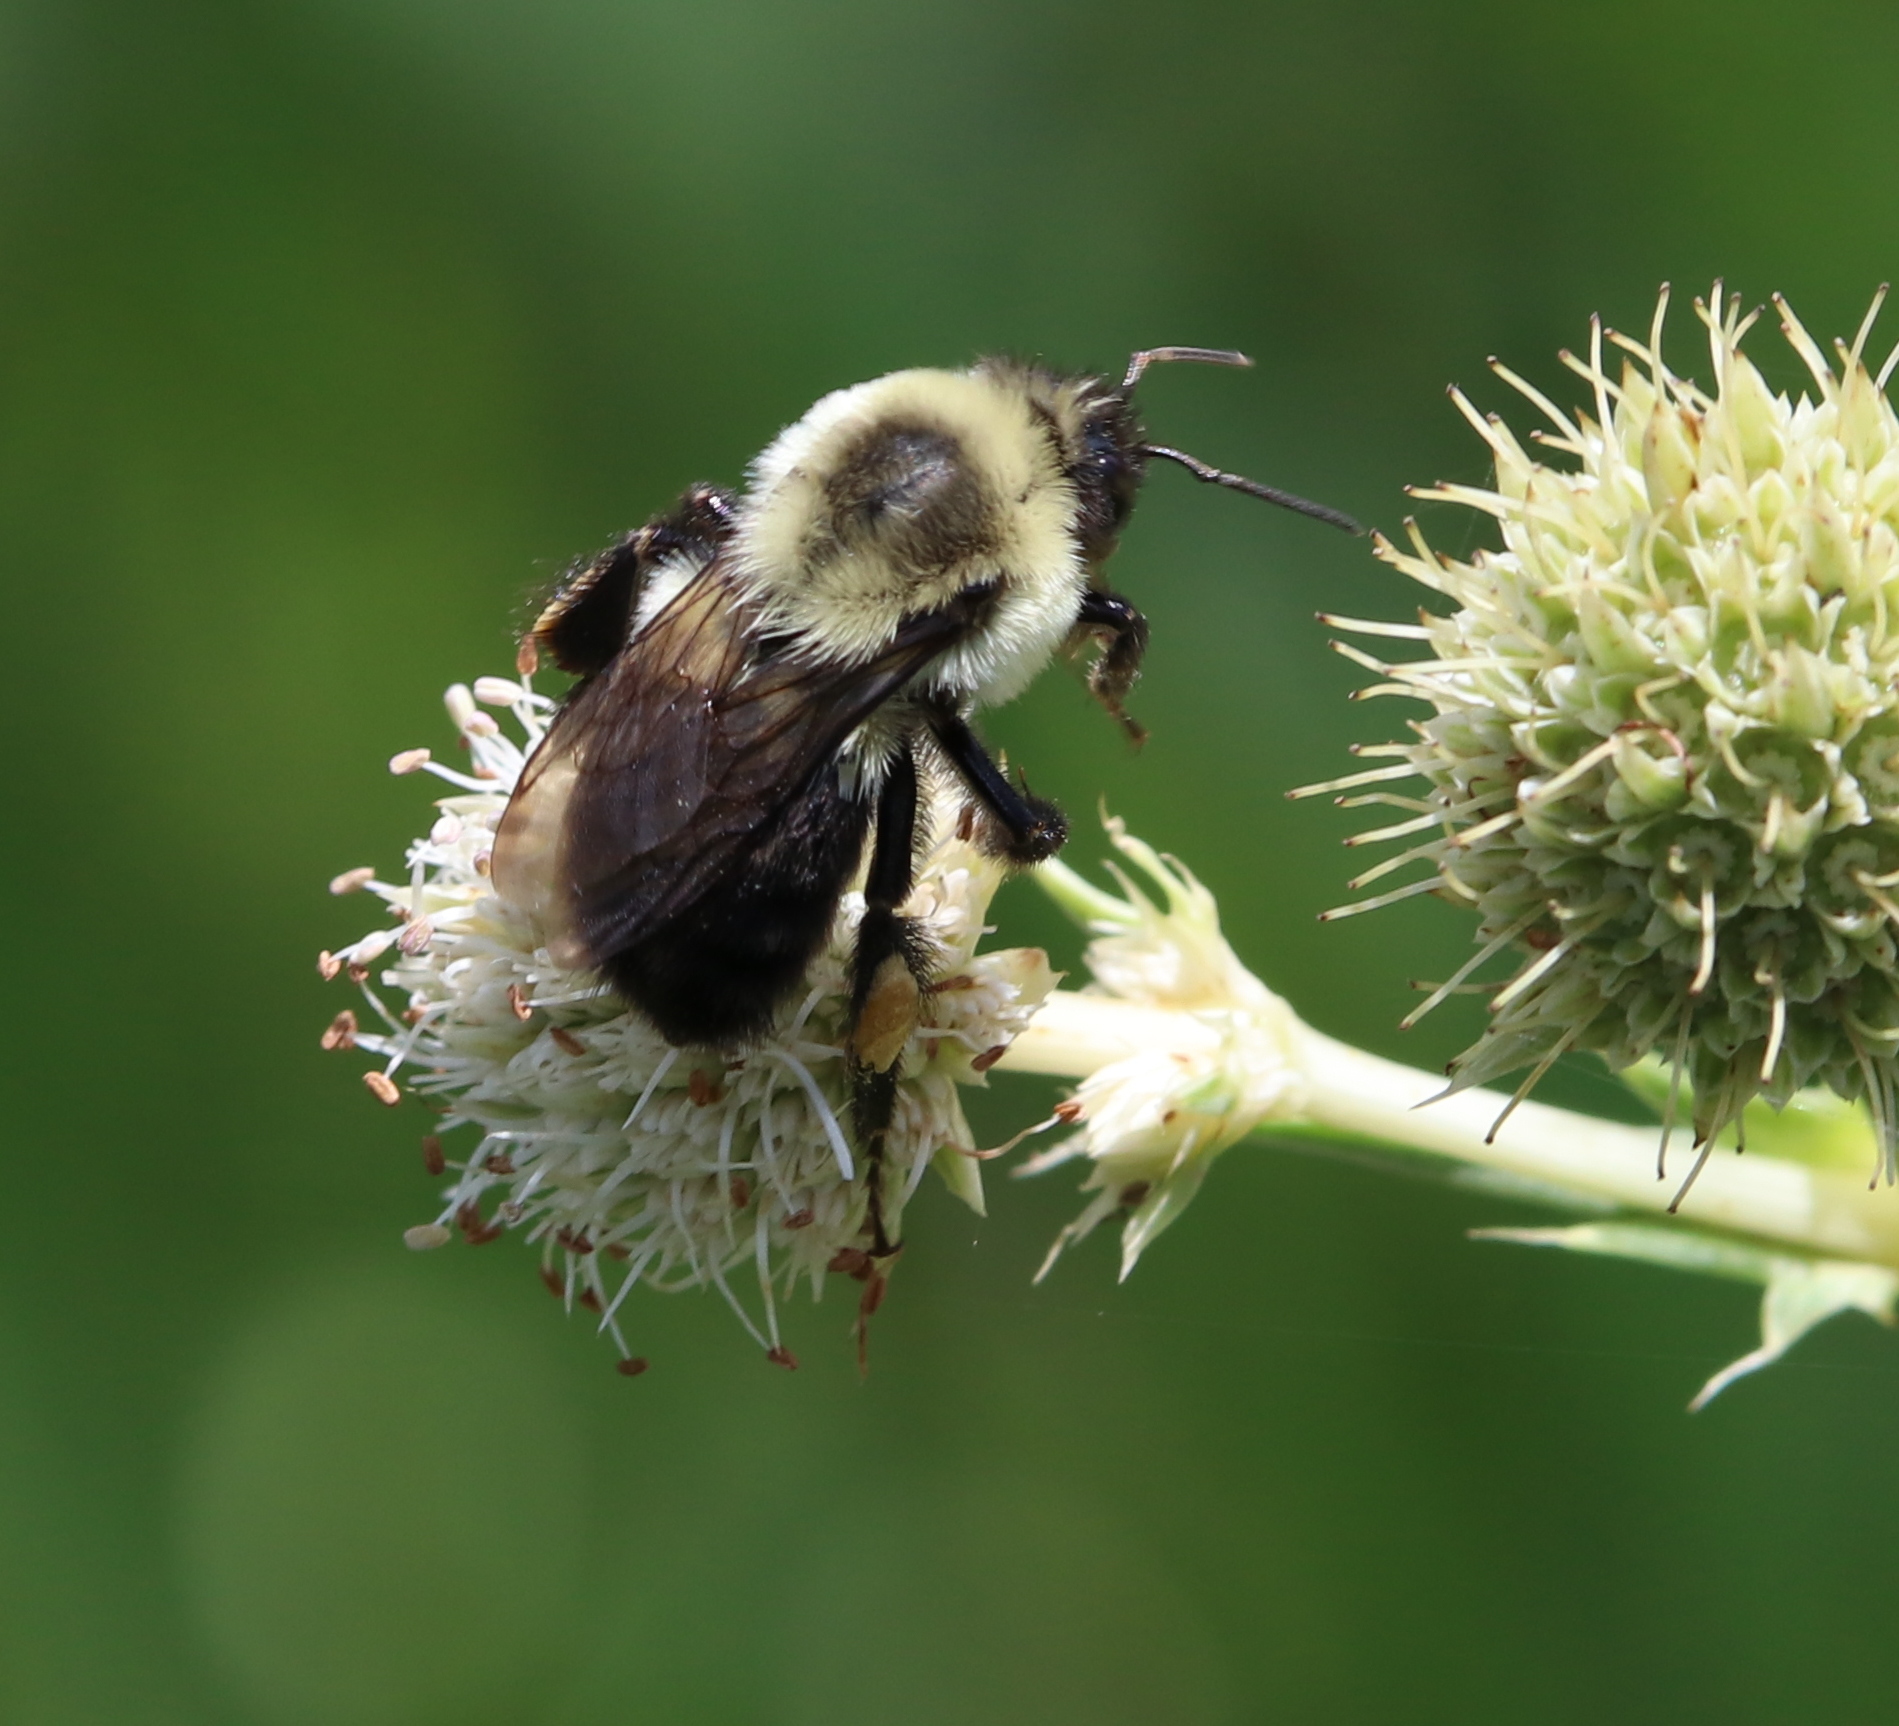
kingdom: Animalia
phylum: Arthropoda
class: Insecta
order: Hymenoptera
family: Apidae
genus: Bombus
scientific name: Bombus impatiens
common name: Common eastern bumble bee
